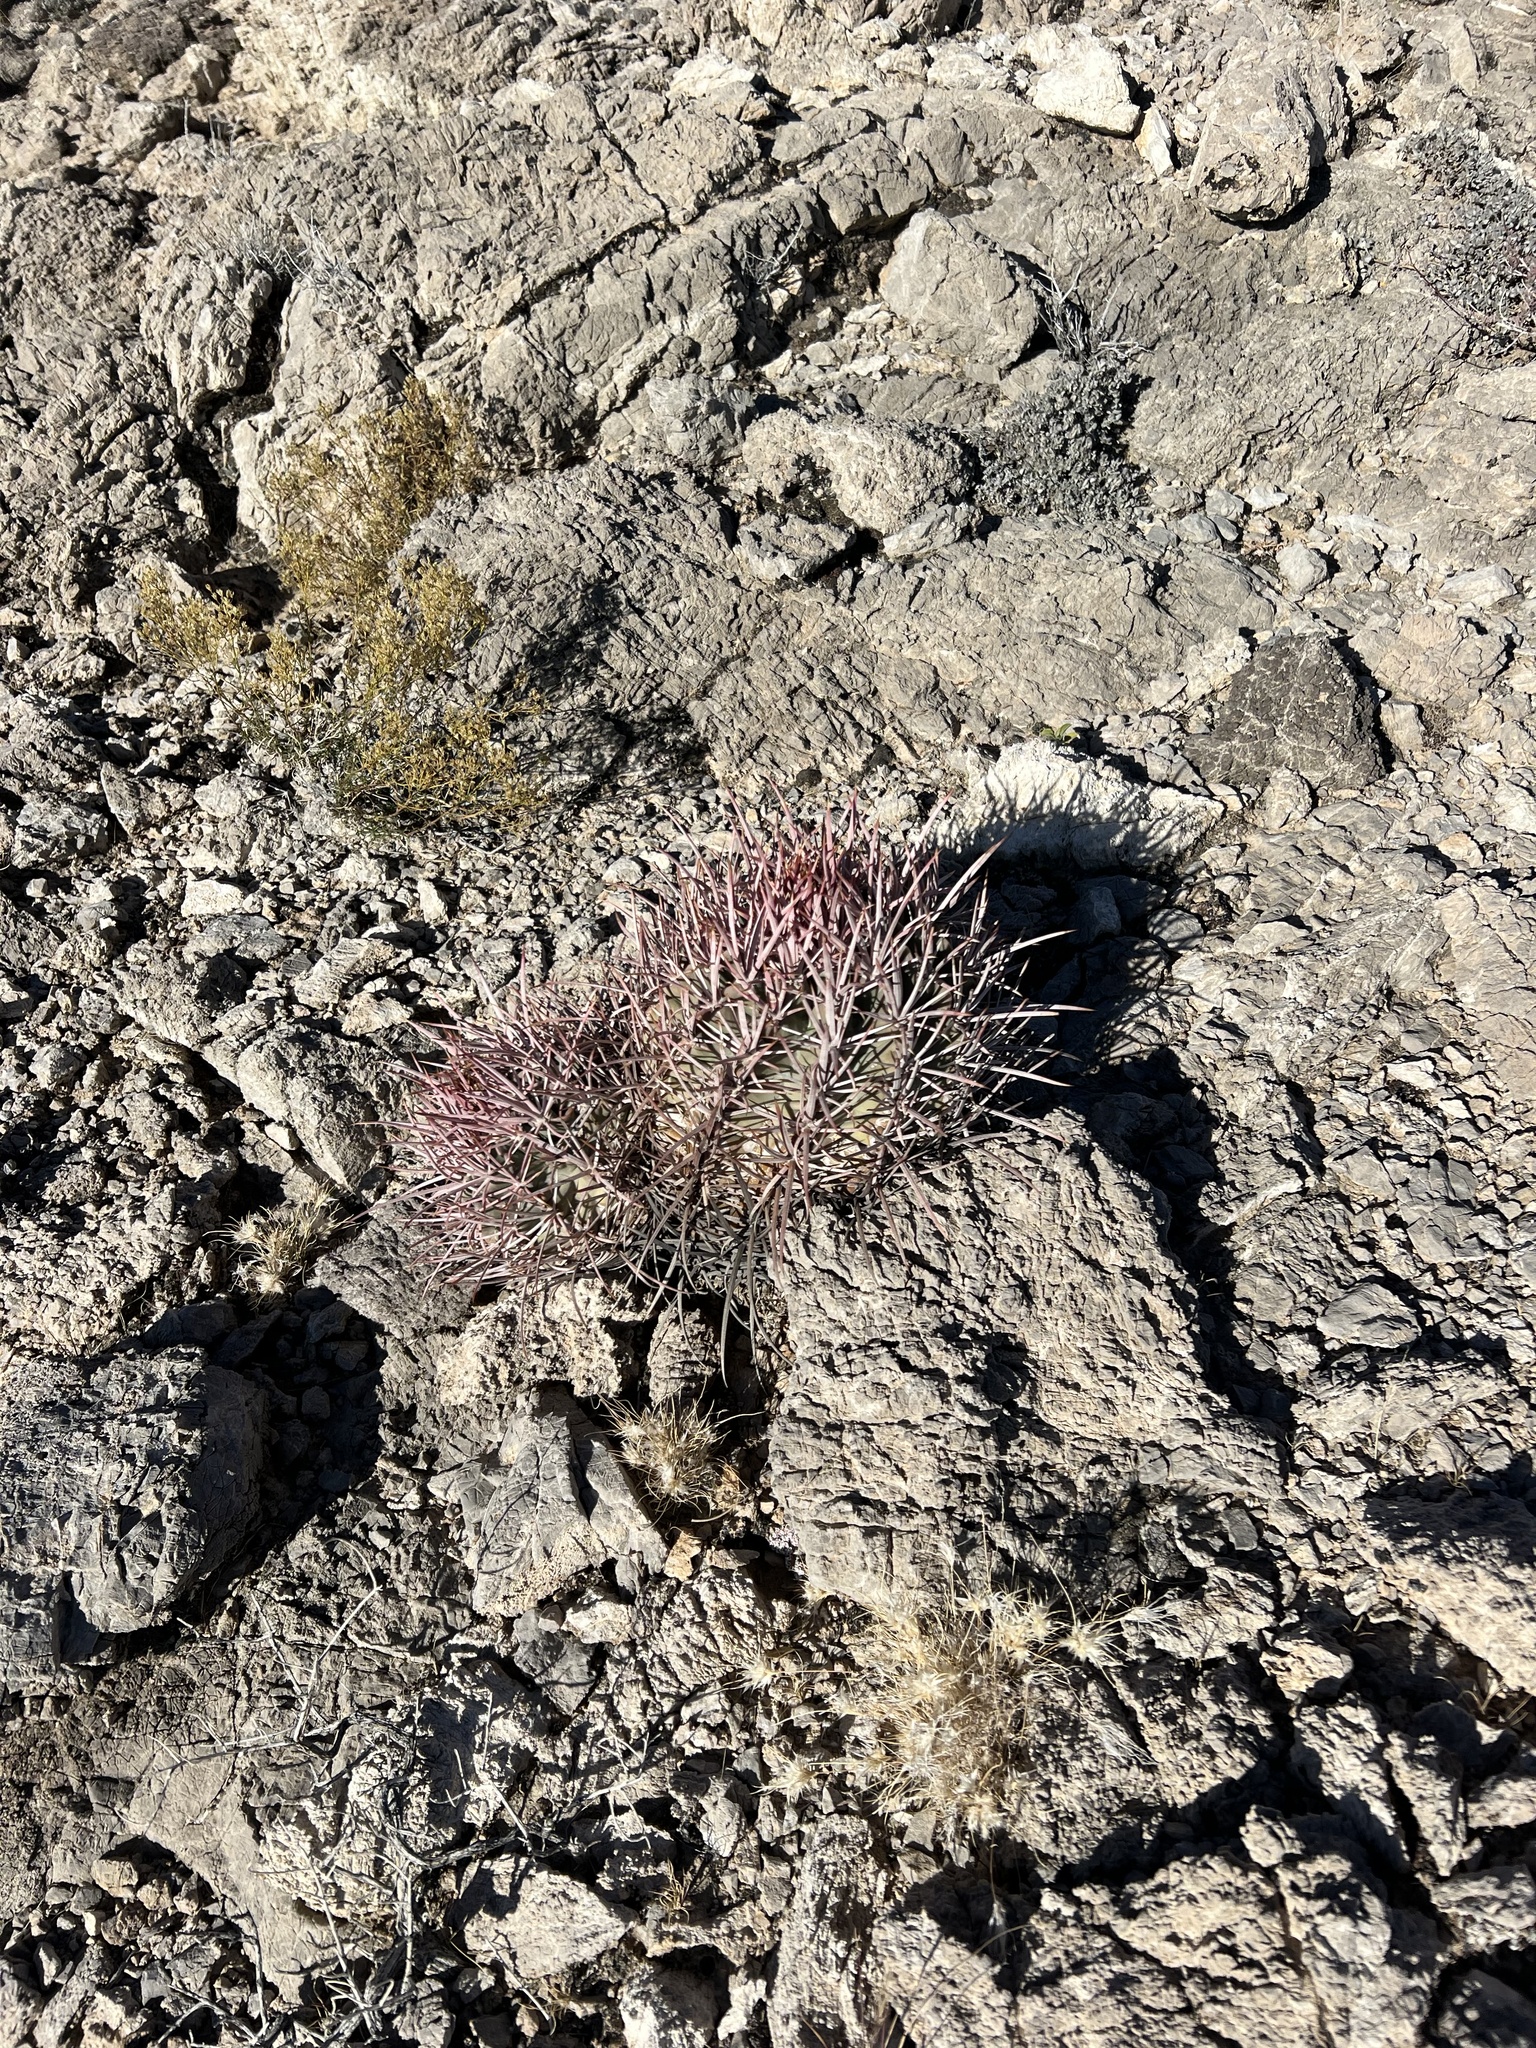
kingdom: Plantae
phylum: Tracheophyta
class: Magnoliopsida
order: Caryophyllales
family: Cactaceae
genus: Echinocactus
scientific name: Echinocactus polycephalus
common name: Cottontop cactus
